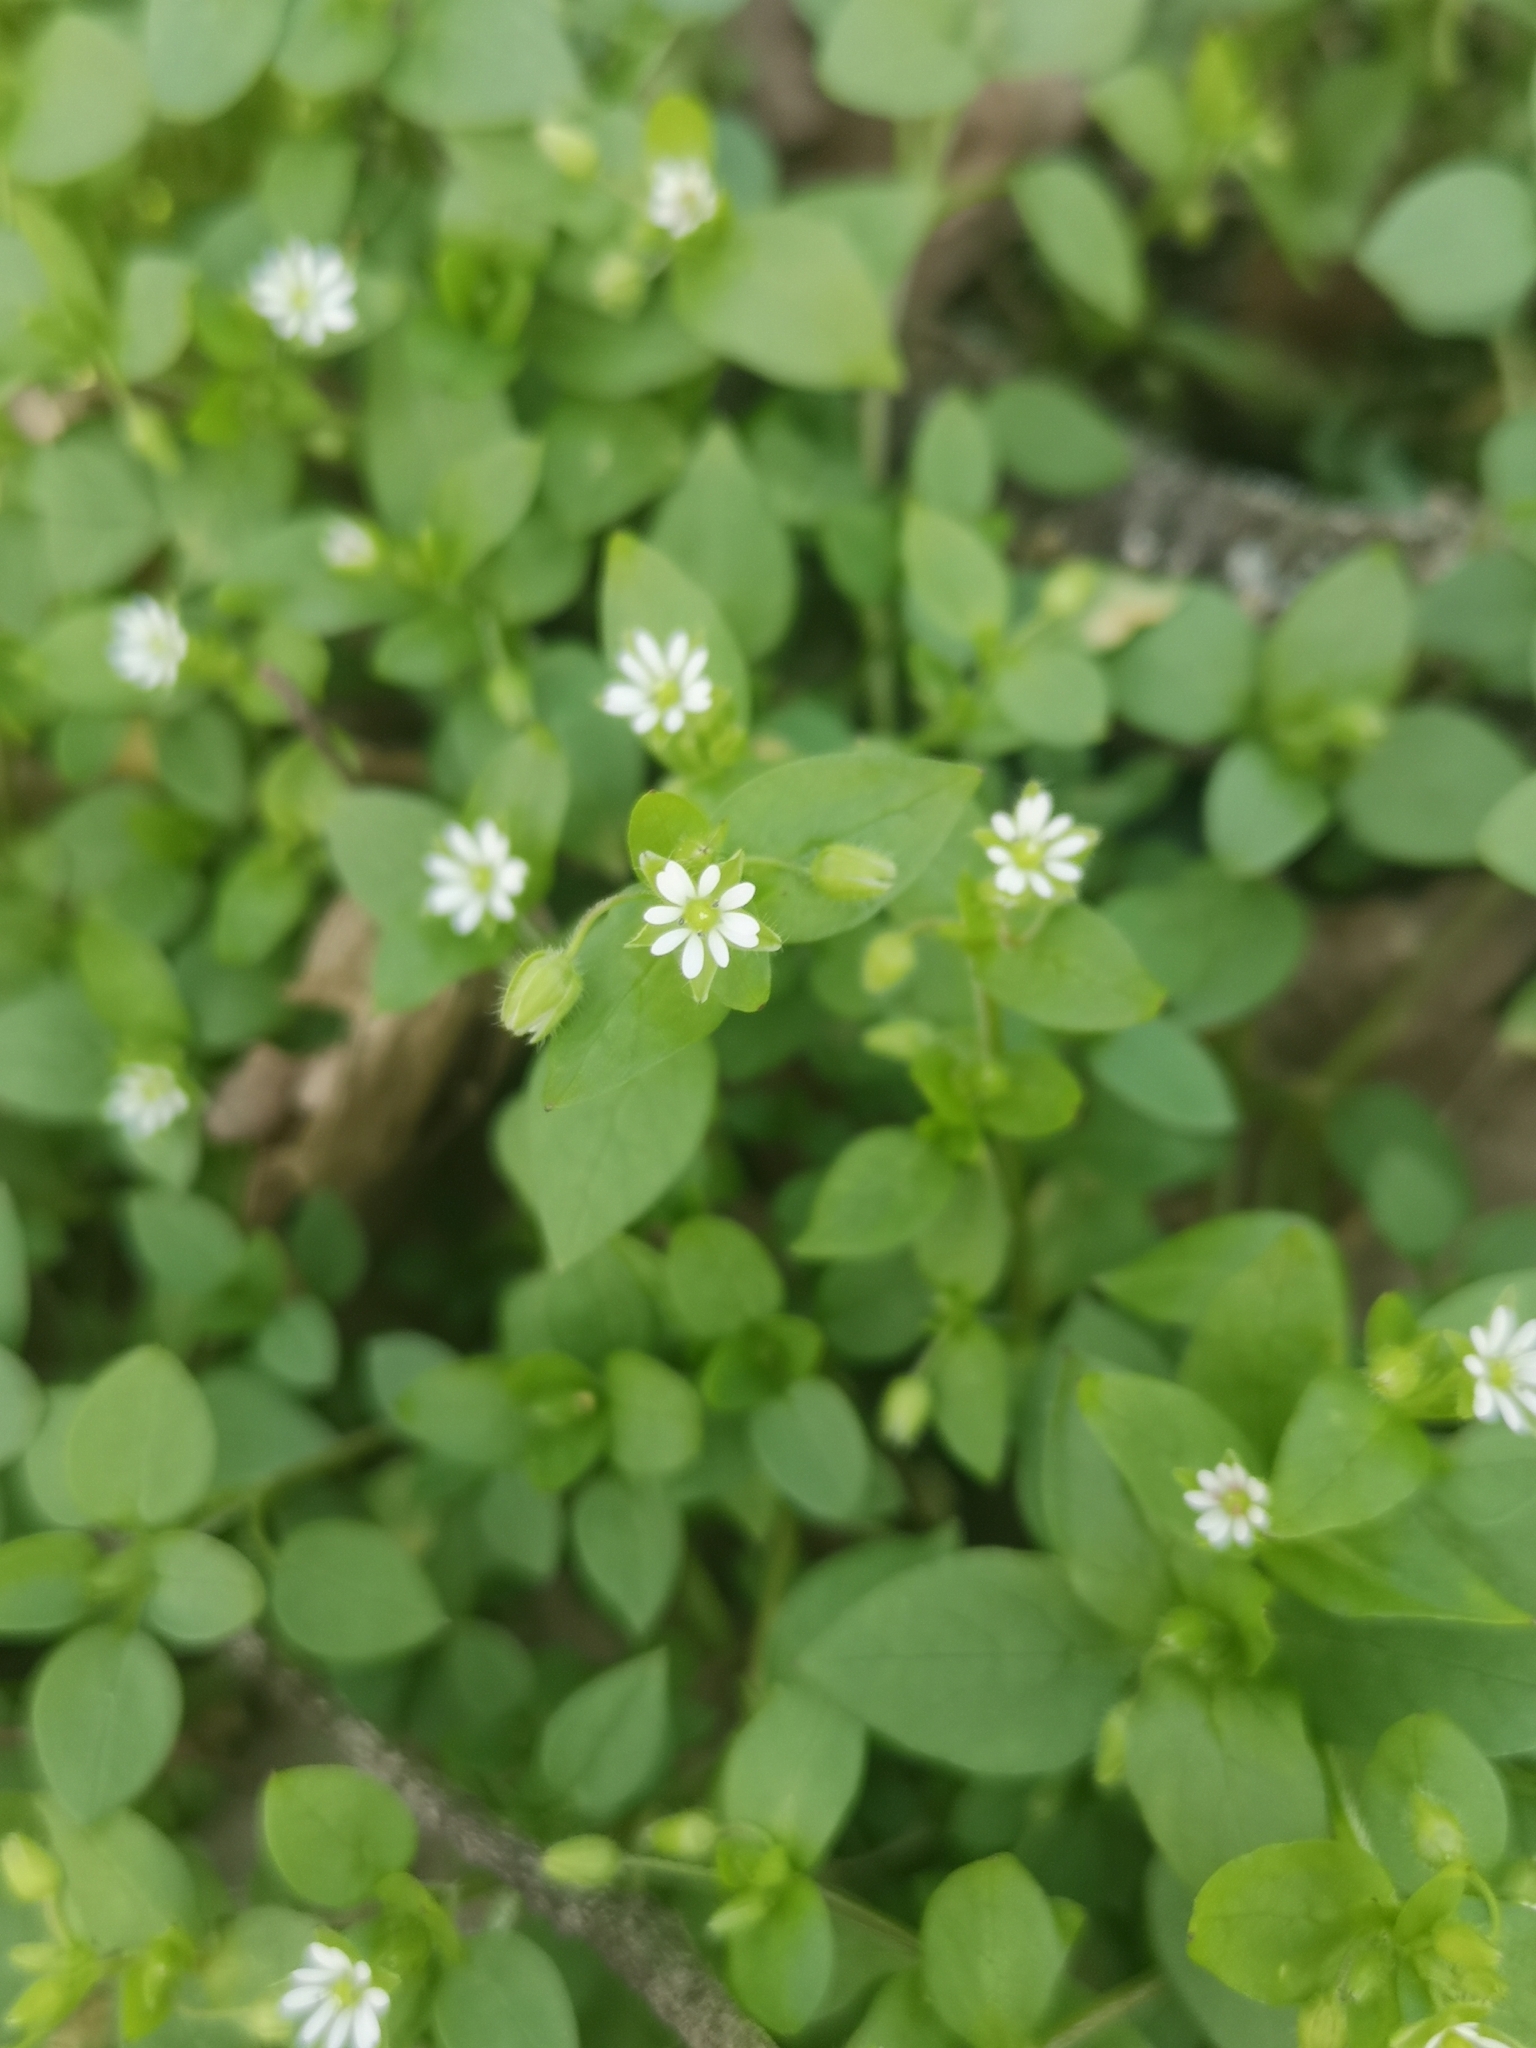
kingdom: Plantae
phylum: Tracheophyta
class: Magnoliopsida
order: Caryophyllales
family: Caryophyllaceae
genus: Stellaria
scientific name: Stellaria media
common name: Common chickweed
